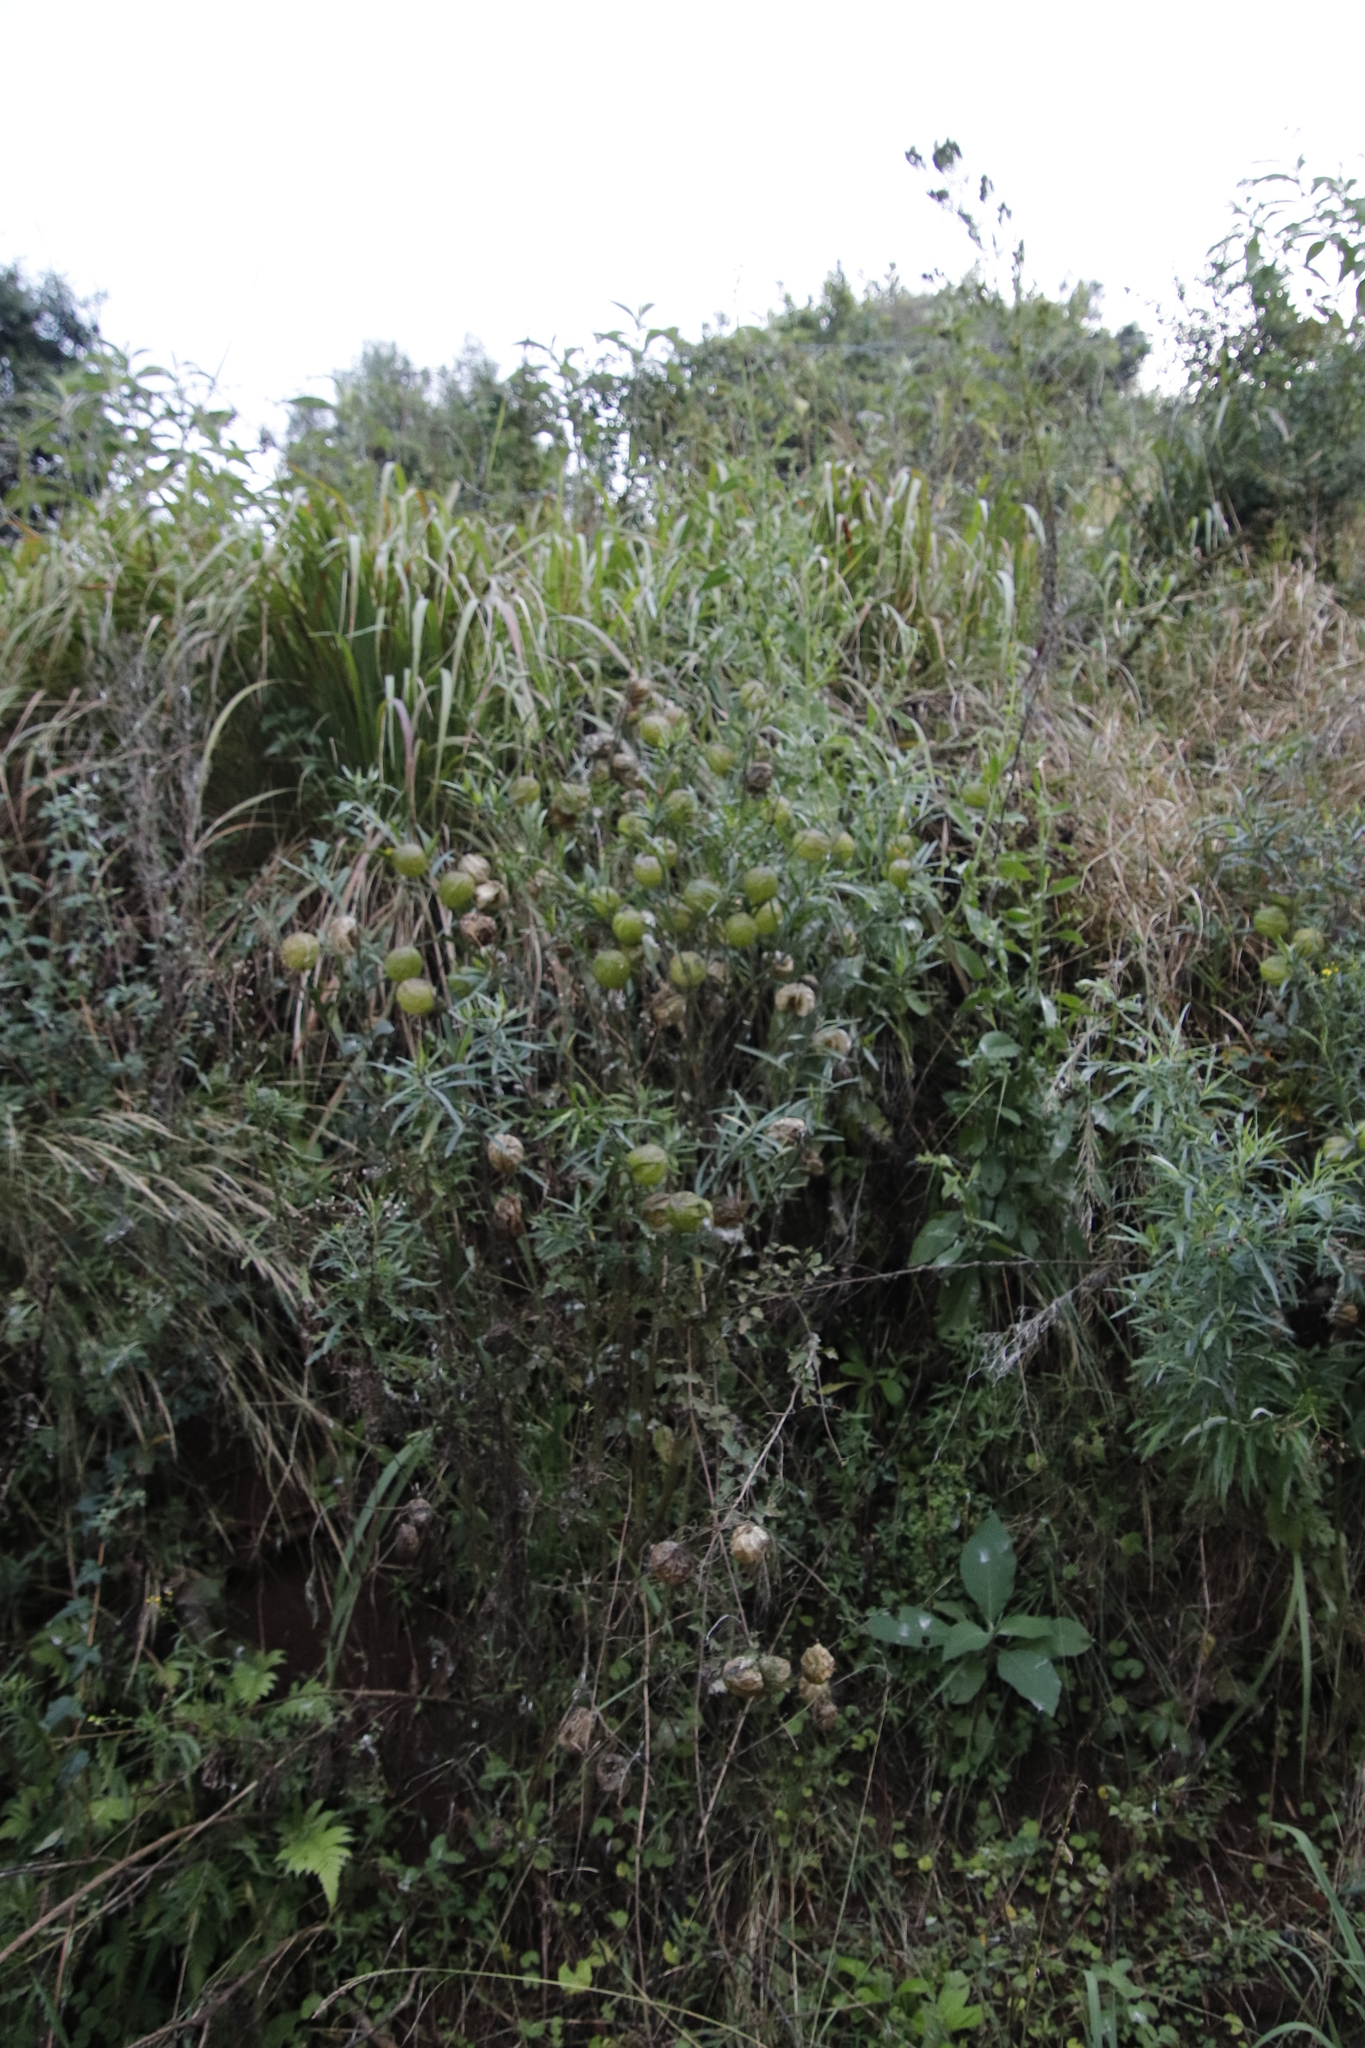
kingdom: Plantae
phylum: Tracheophyta
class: Magnoliopsida
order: Gentianales
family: Apocynaceae
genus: Gomphocarpus
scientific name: Gomphocarpus physocarpus
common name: Balloon cotton bush
